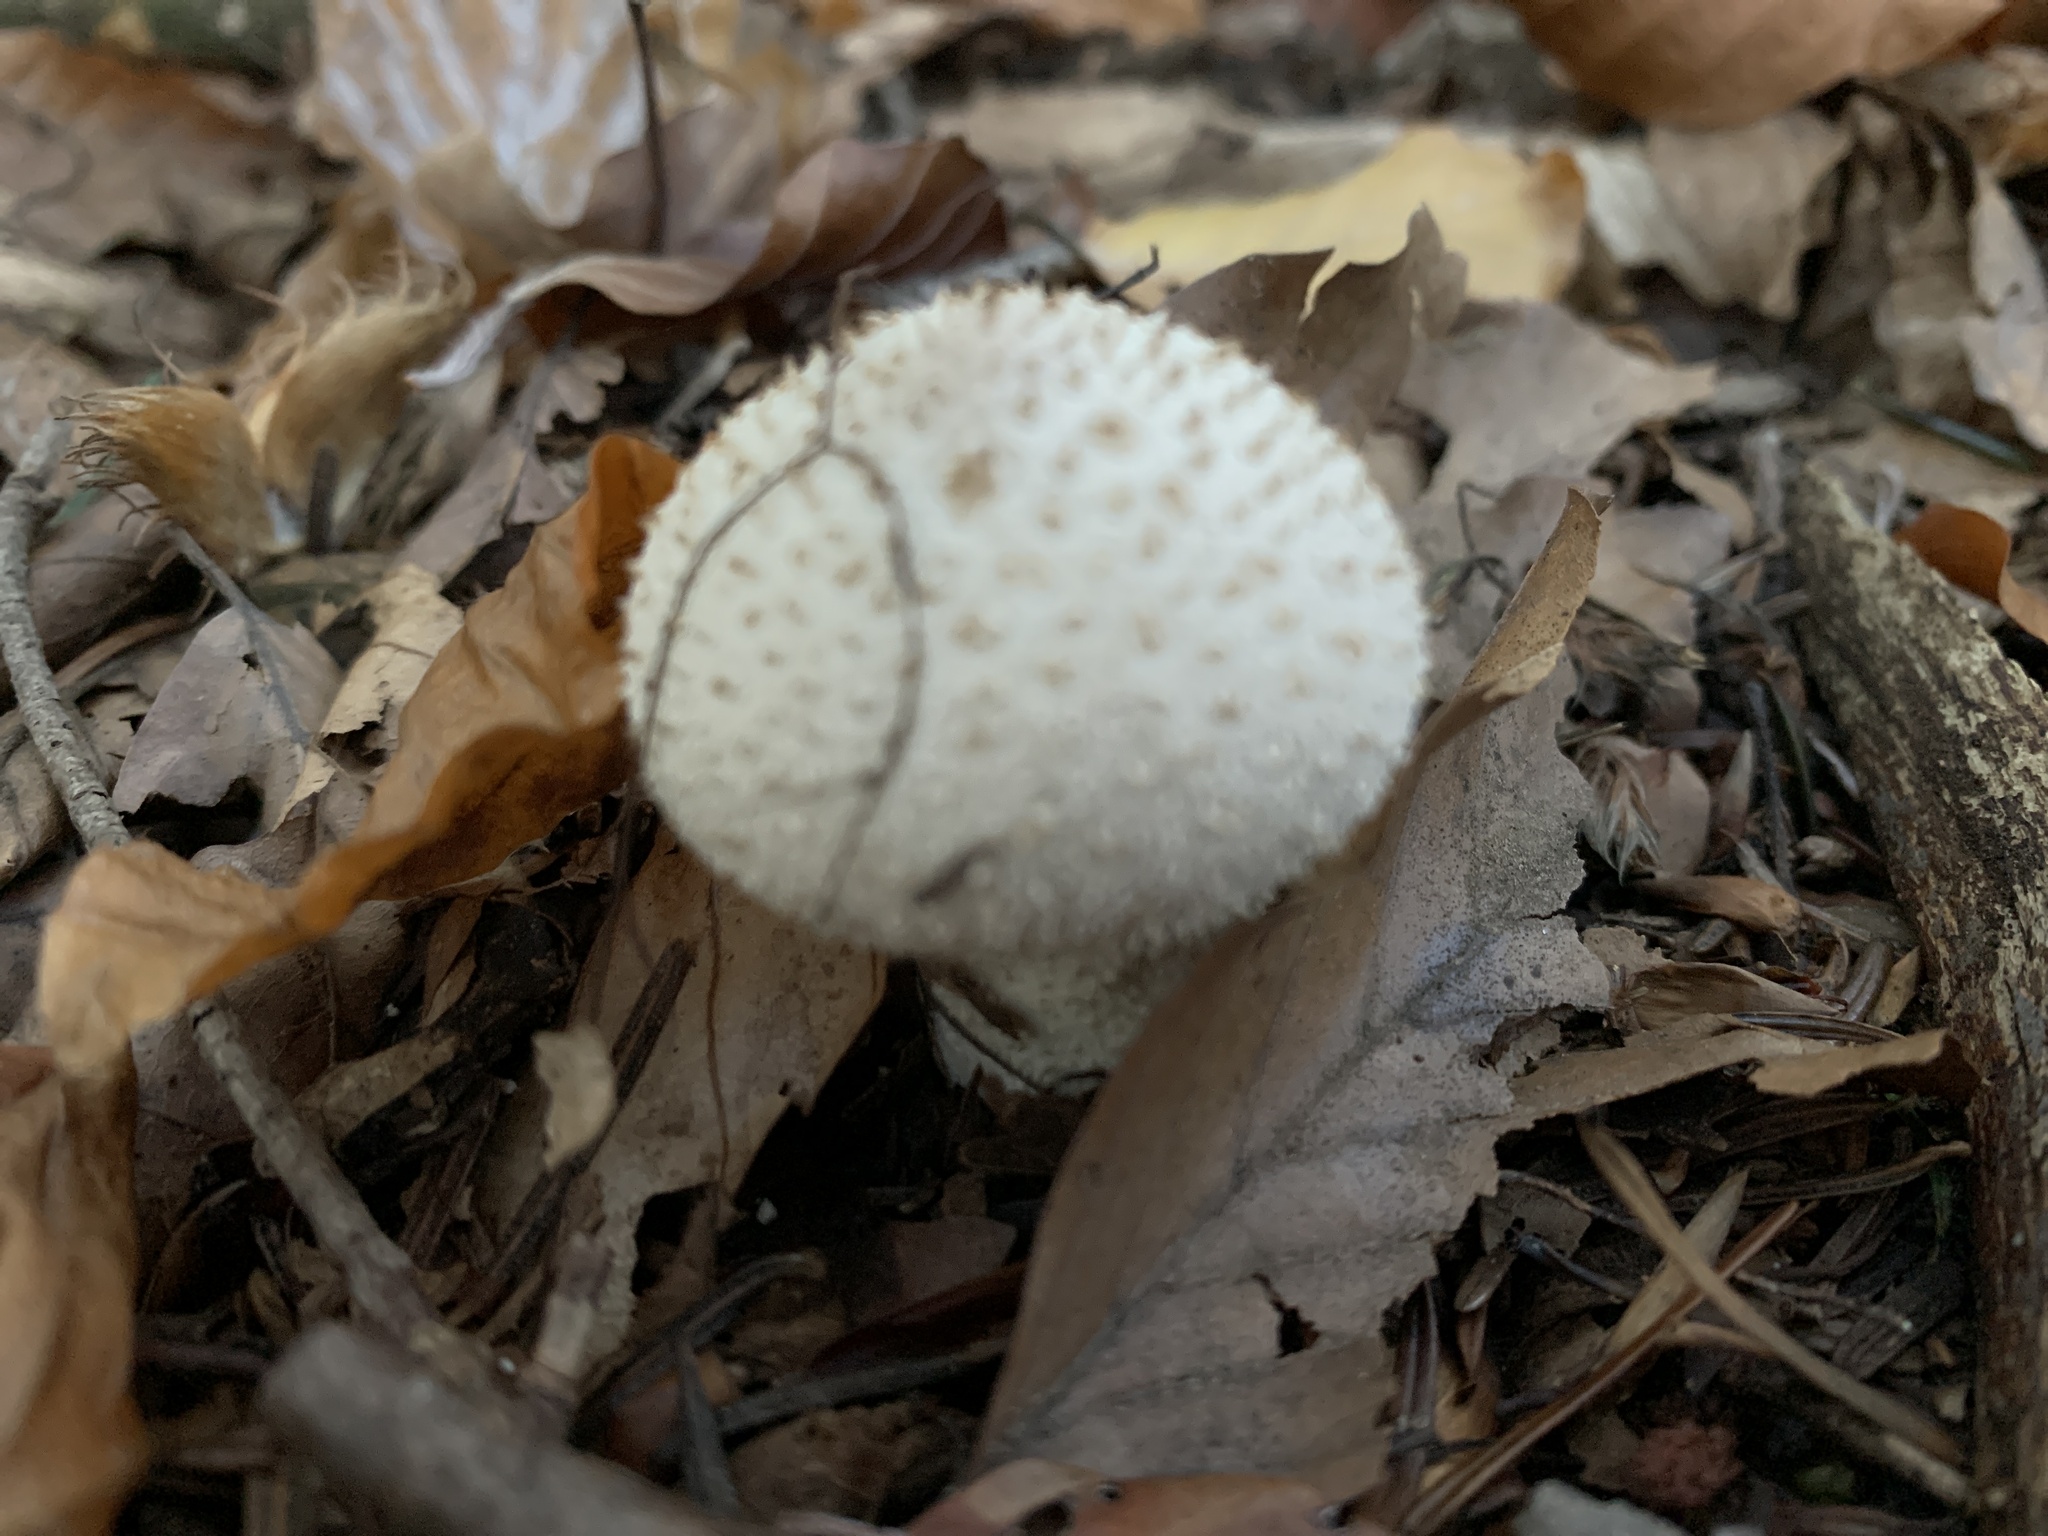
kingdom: Fungi
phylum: Basidiomycota
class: Agaricomycetes
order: Agaricales
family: Lycoperdaceae
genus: Lycoperdon
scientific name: Lycoperdon perlatum
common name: Common puffball
